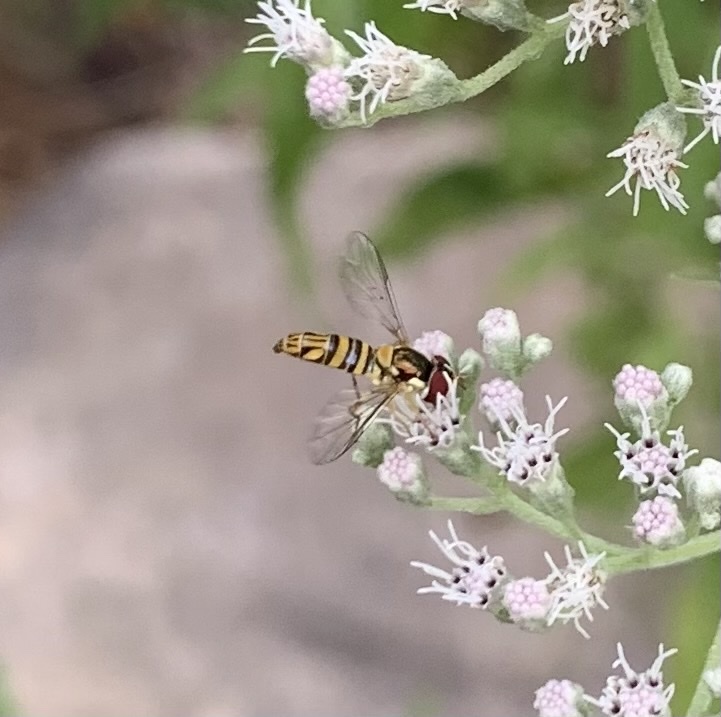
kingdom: Animalia
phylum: Arthropoda
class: Insecta
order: Diptera
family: Syrphidae
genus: Allograpta
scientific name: Allograpta obliqua
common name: Common oblique syrphid
